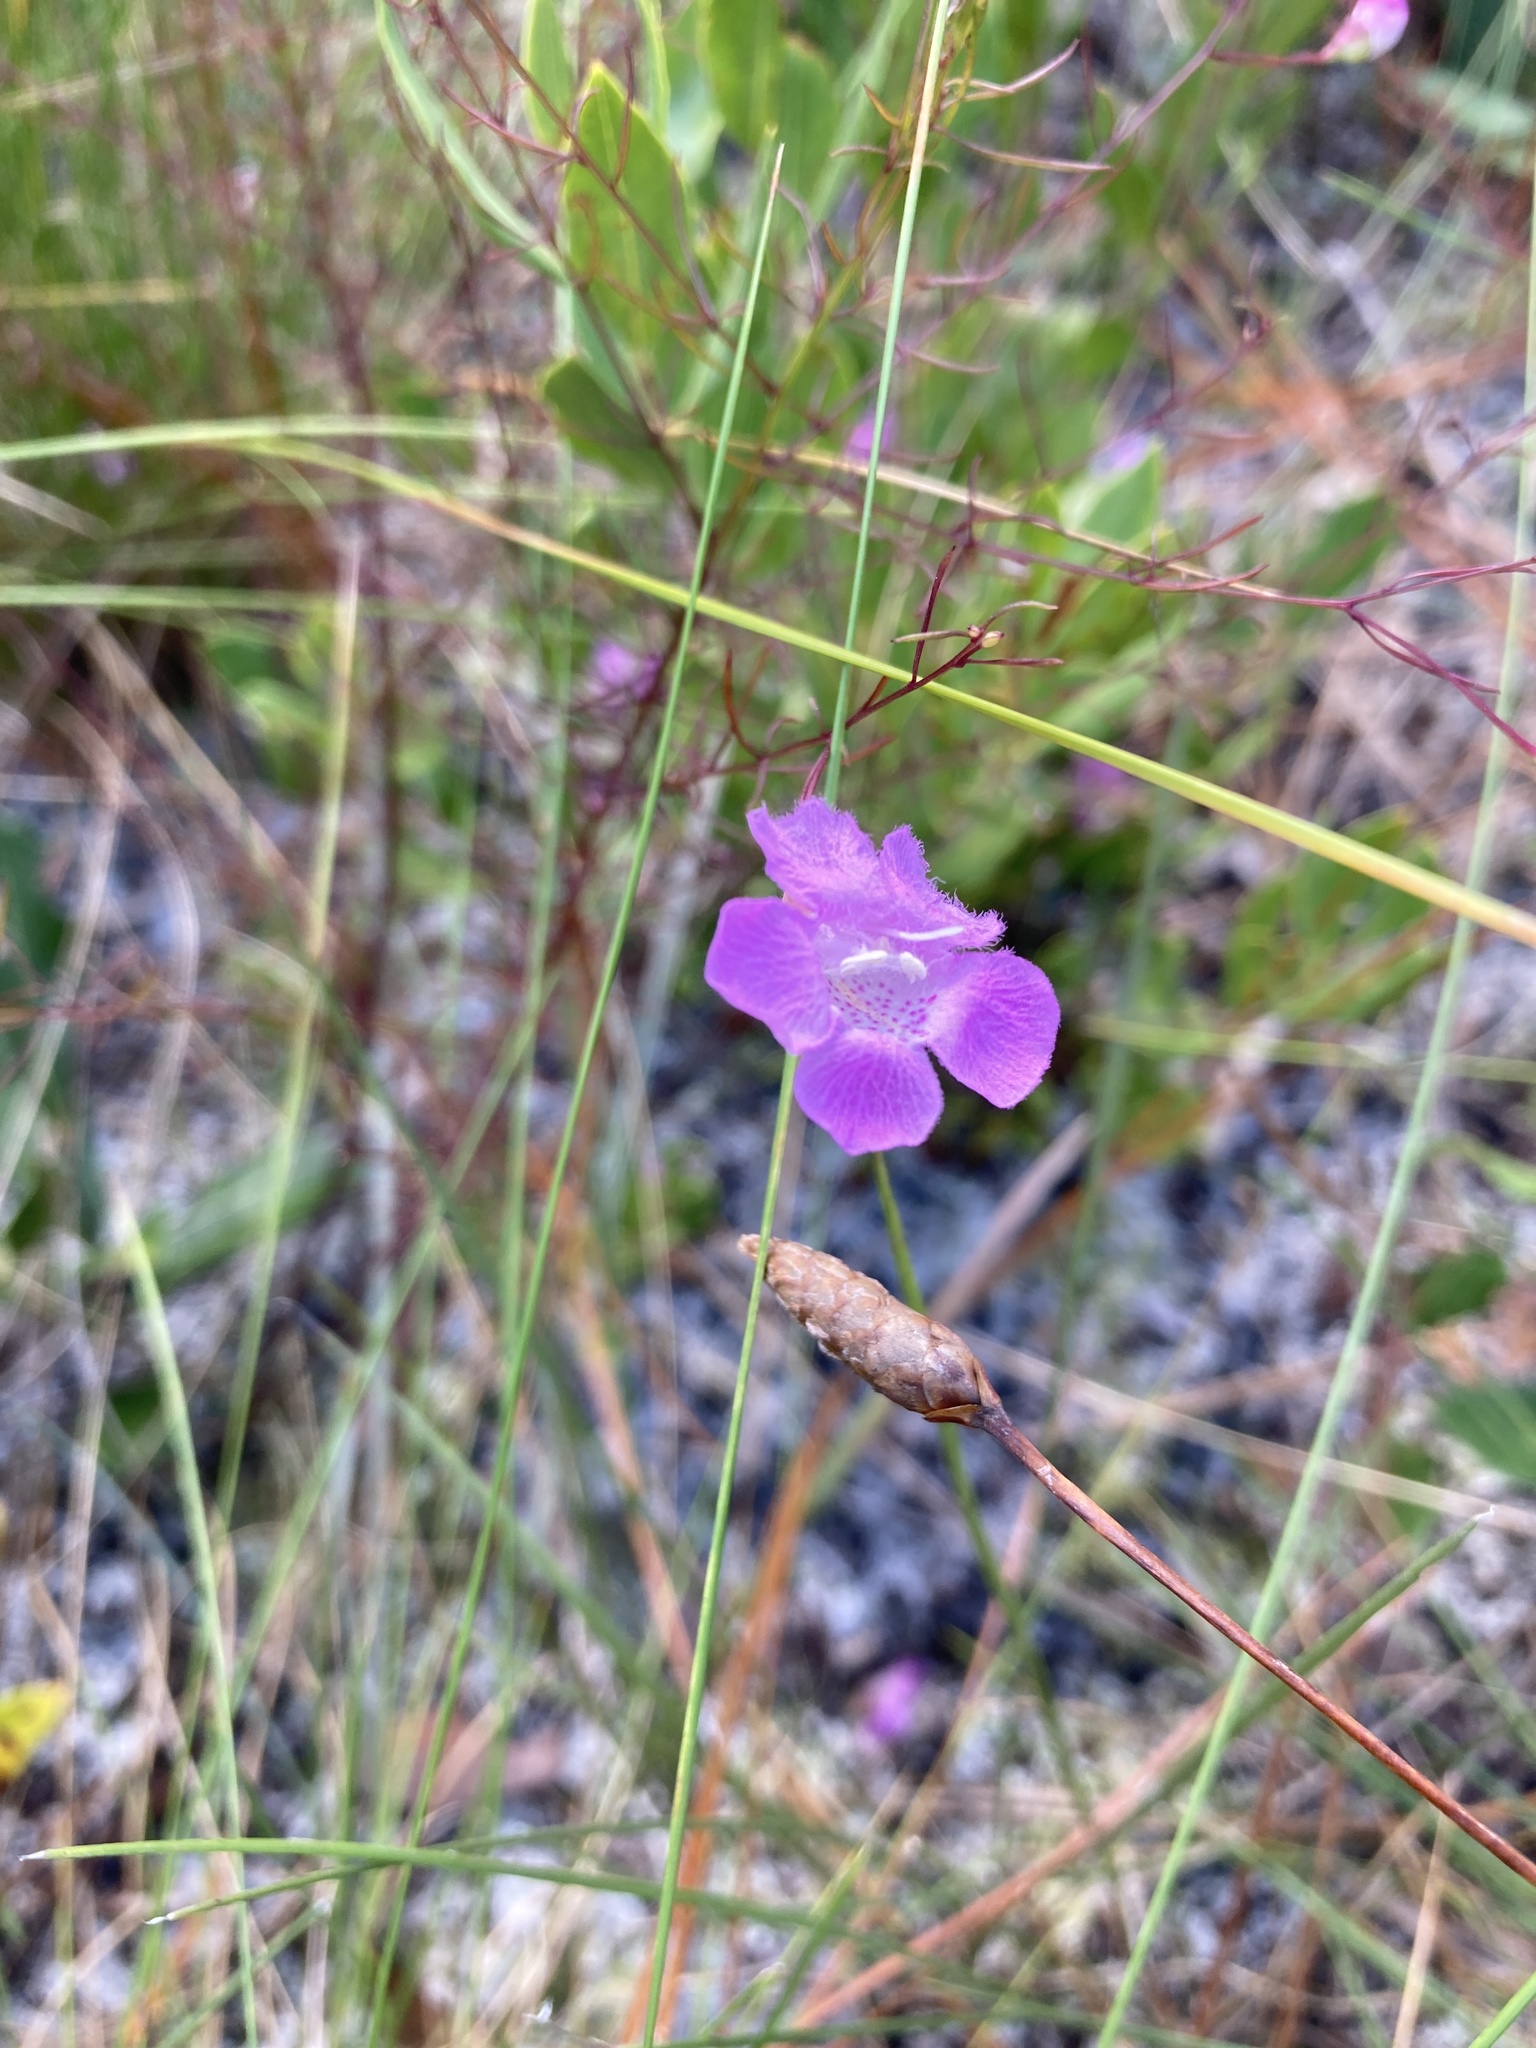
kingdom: Plantae
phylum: Tracheophyta
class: Magnoliopsida
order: Lamiales
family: Orobanchaceae
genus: Agalinis
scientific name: Agalinis filifolia
